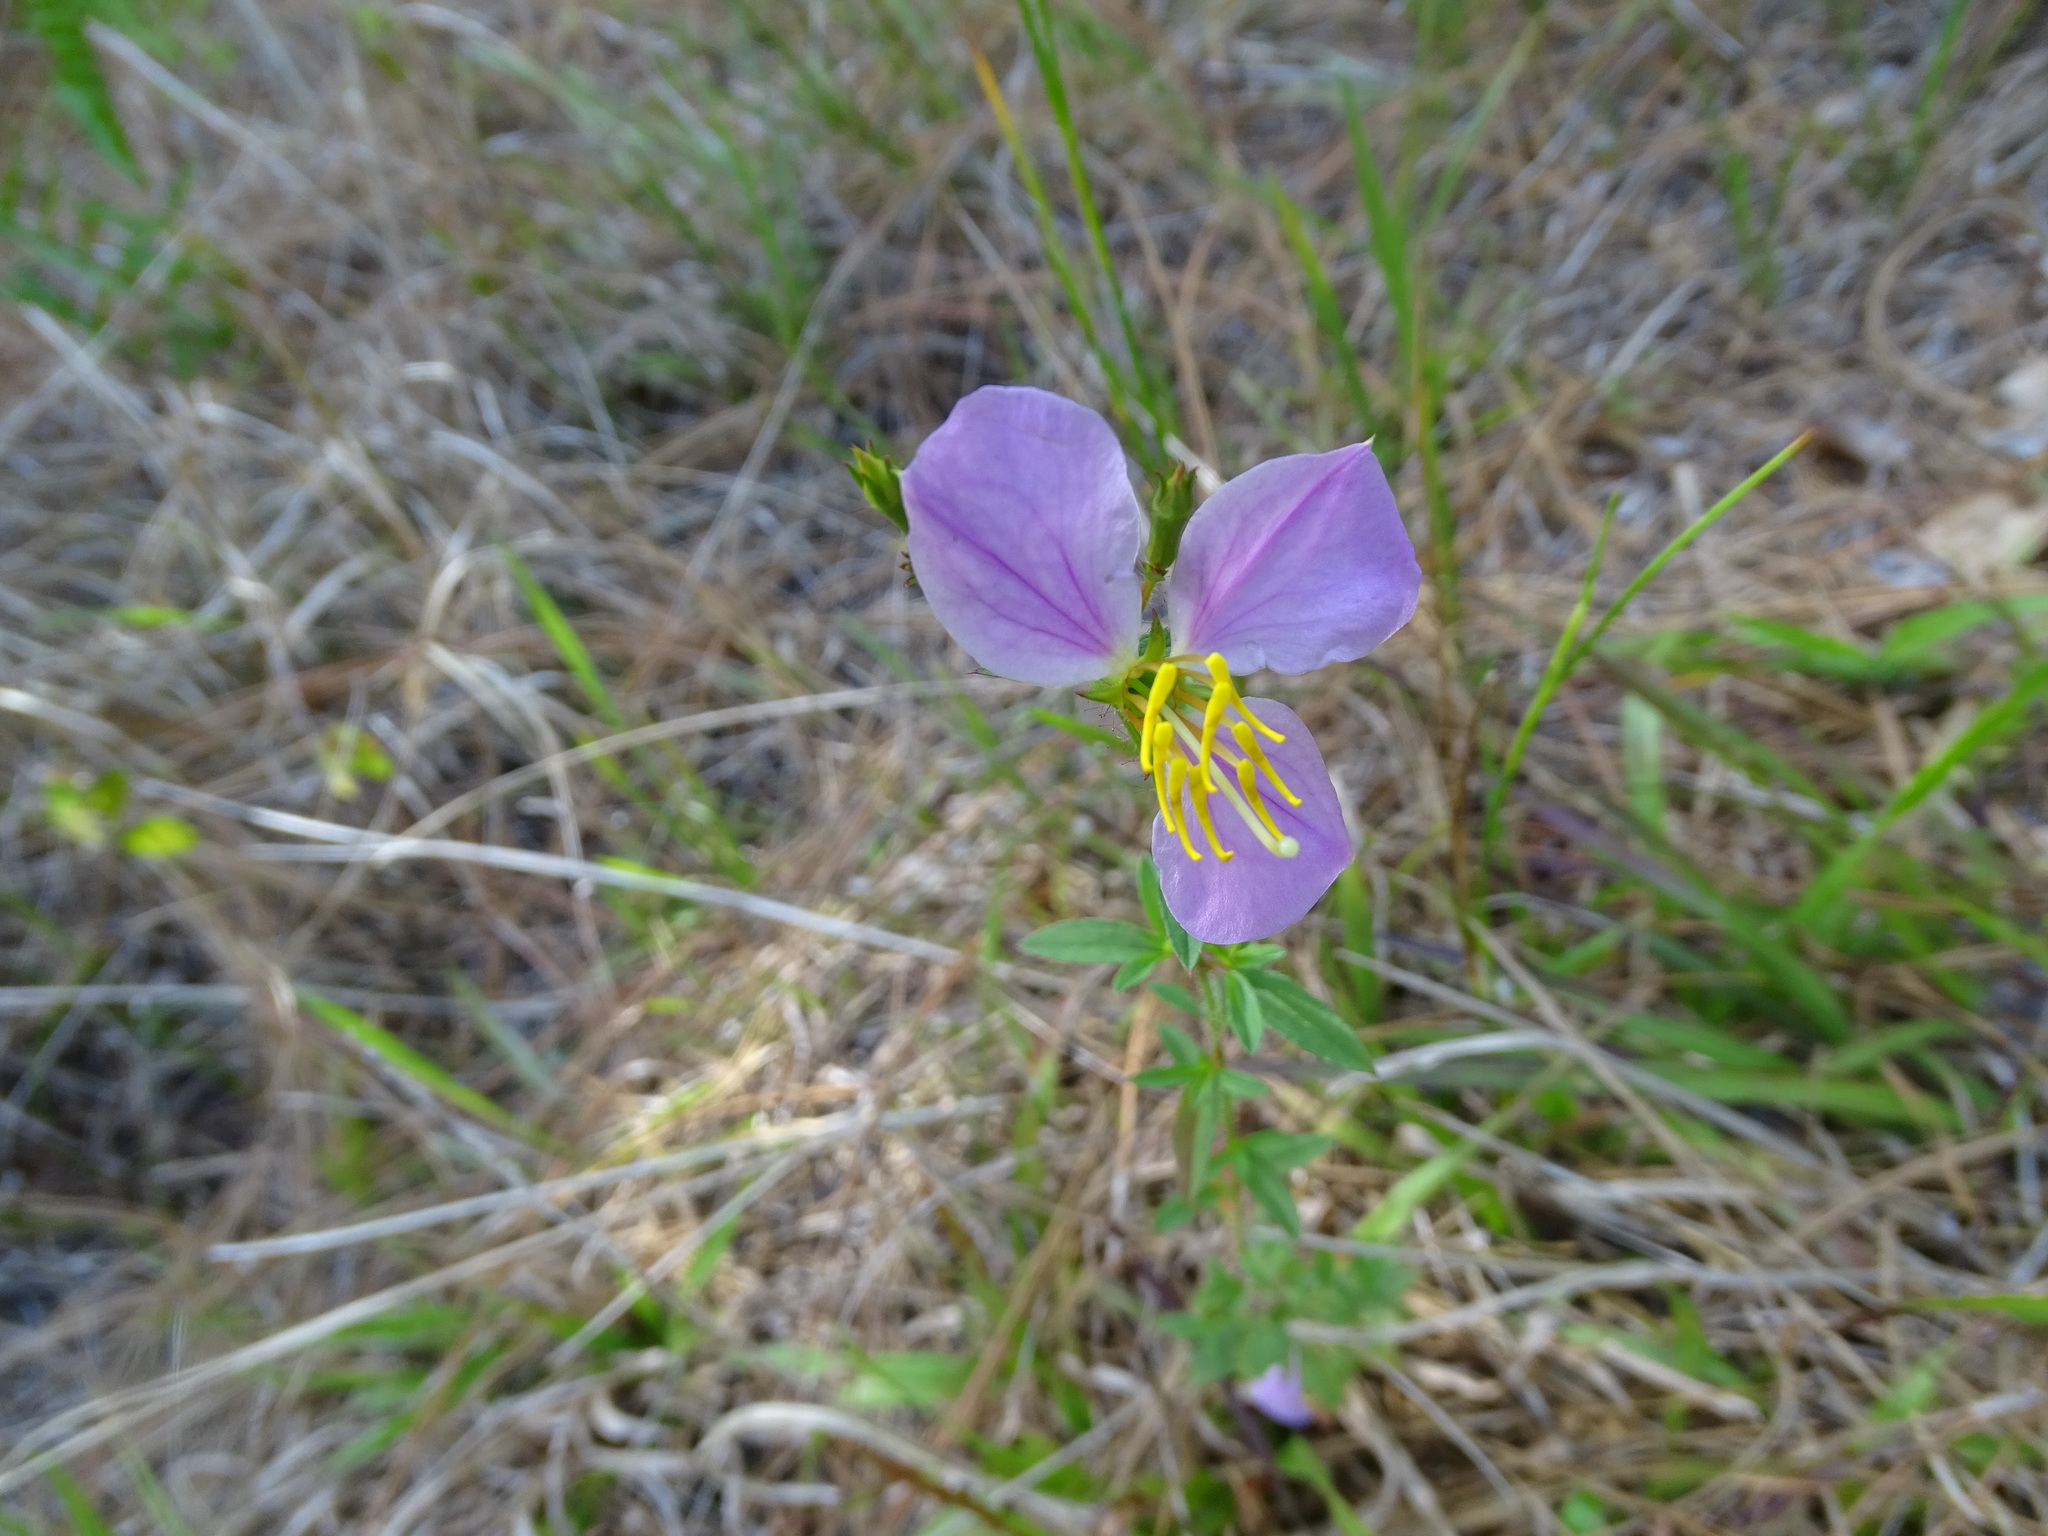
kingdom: Plantae
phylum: Tracheophyta
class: Magnoliopsida
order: Myrtales
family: Melastomataceae
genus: Rhexia
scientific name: Rhexia mariana
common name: Dull meadow-pitcher
